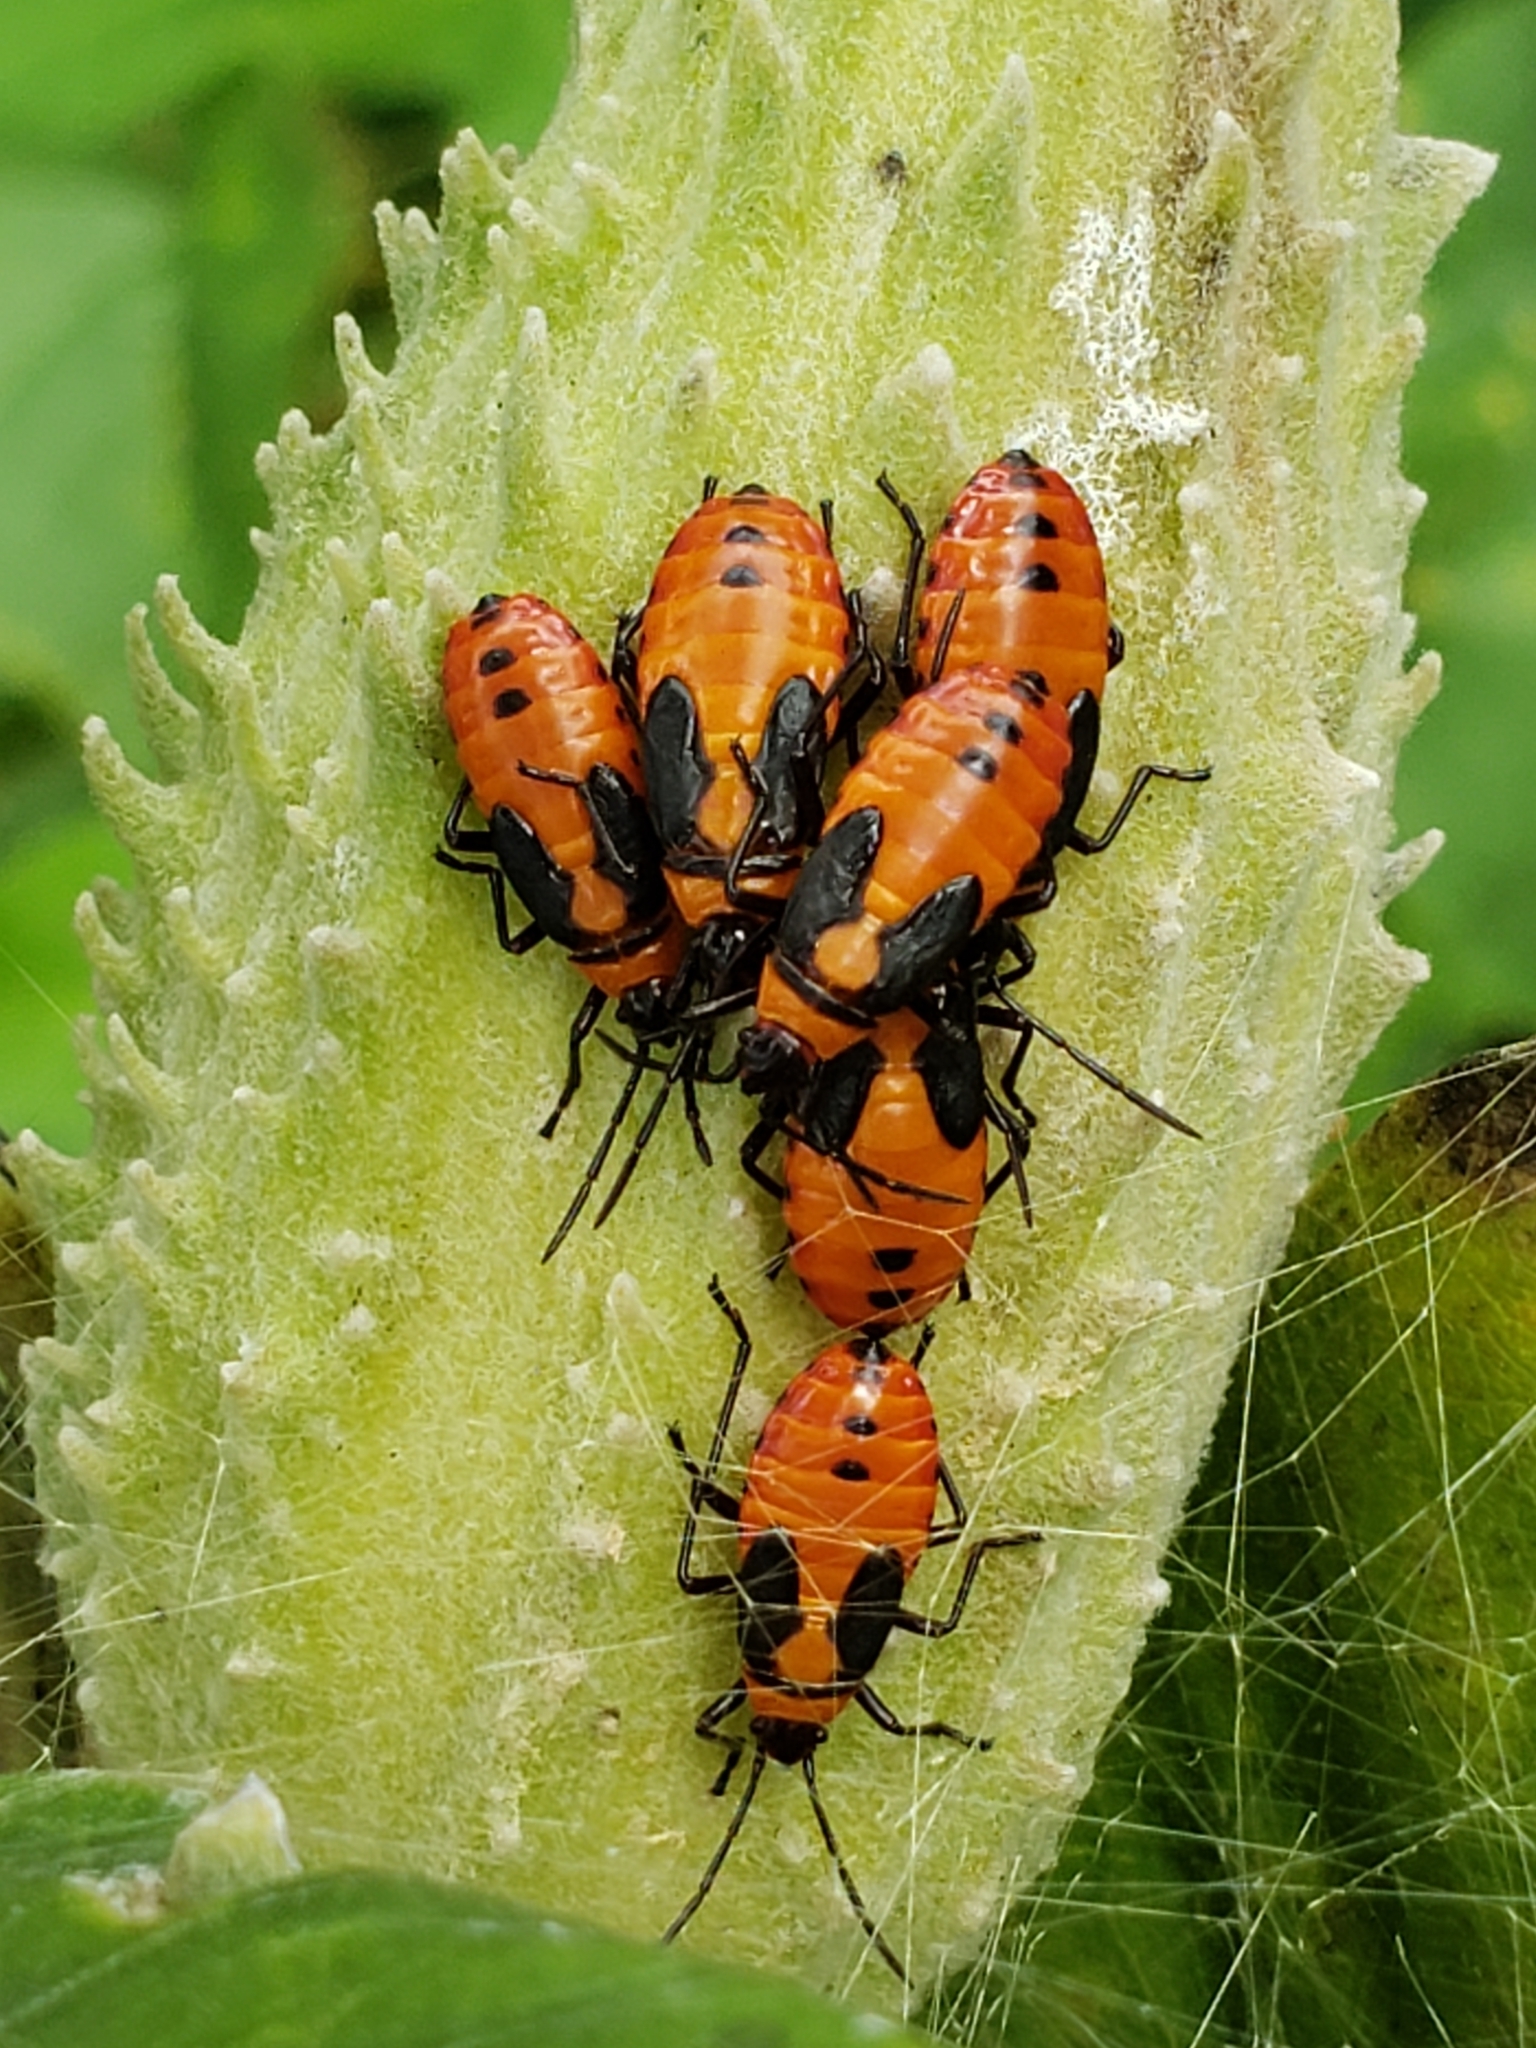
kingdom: Animalia
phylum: Arthropoda
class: Insecta
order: Hemiptera
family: Lygaeidae
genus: Oncopeltus
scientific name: Oncopeltus fasciatus
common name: Large milkweed bug
